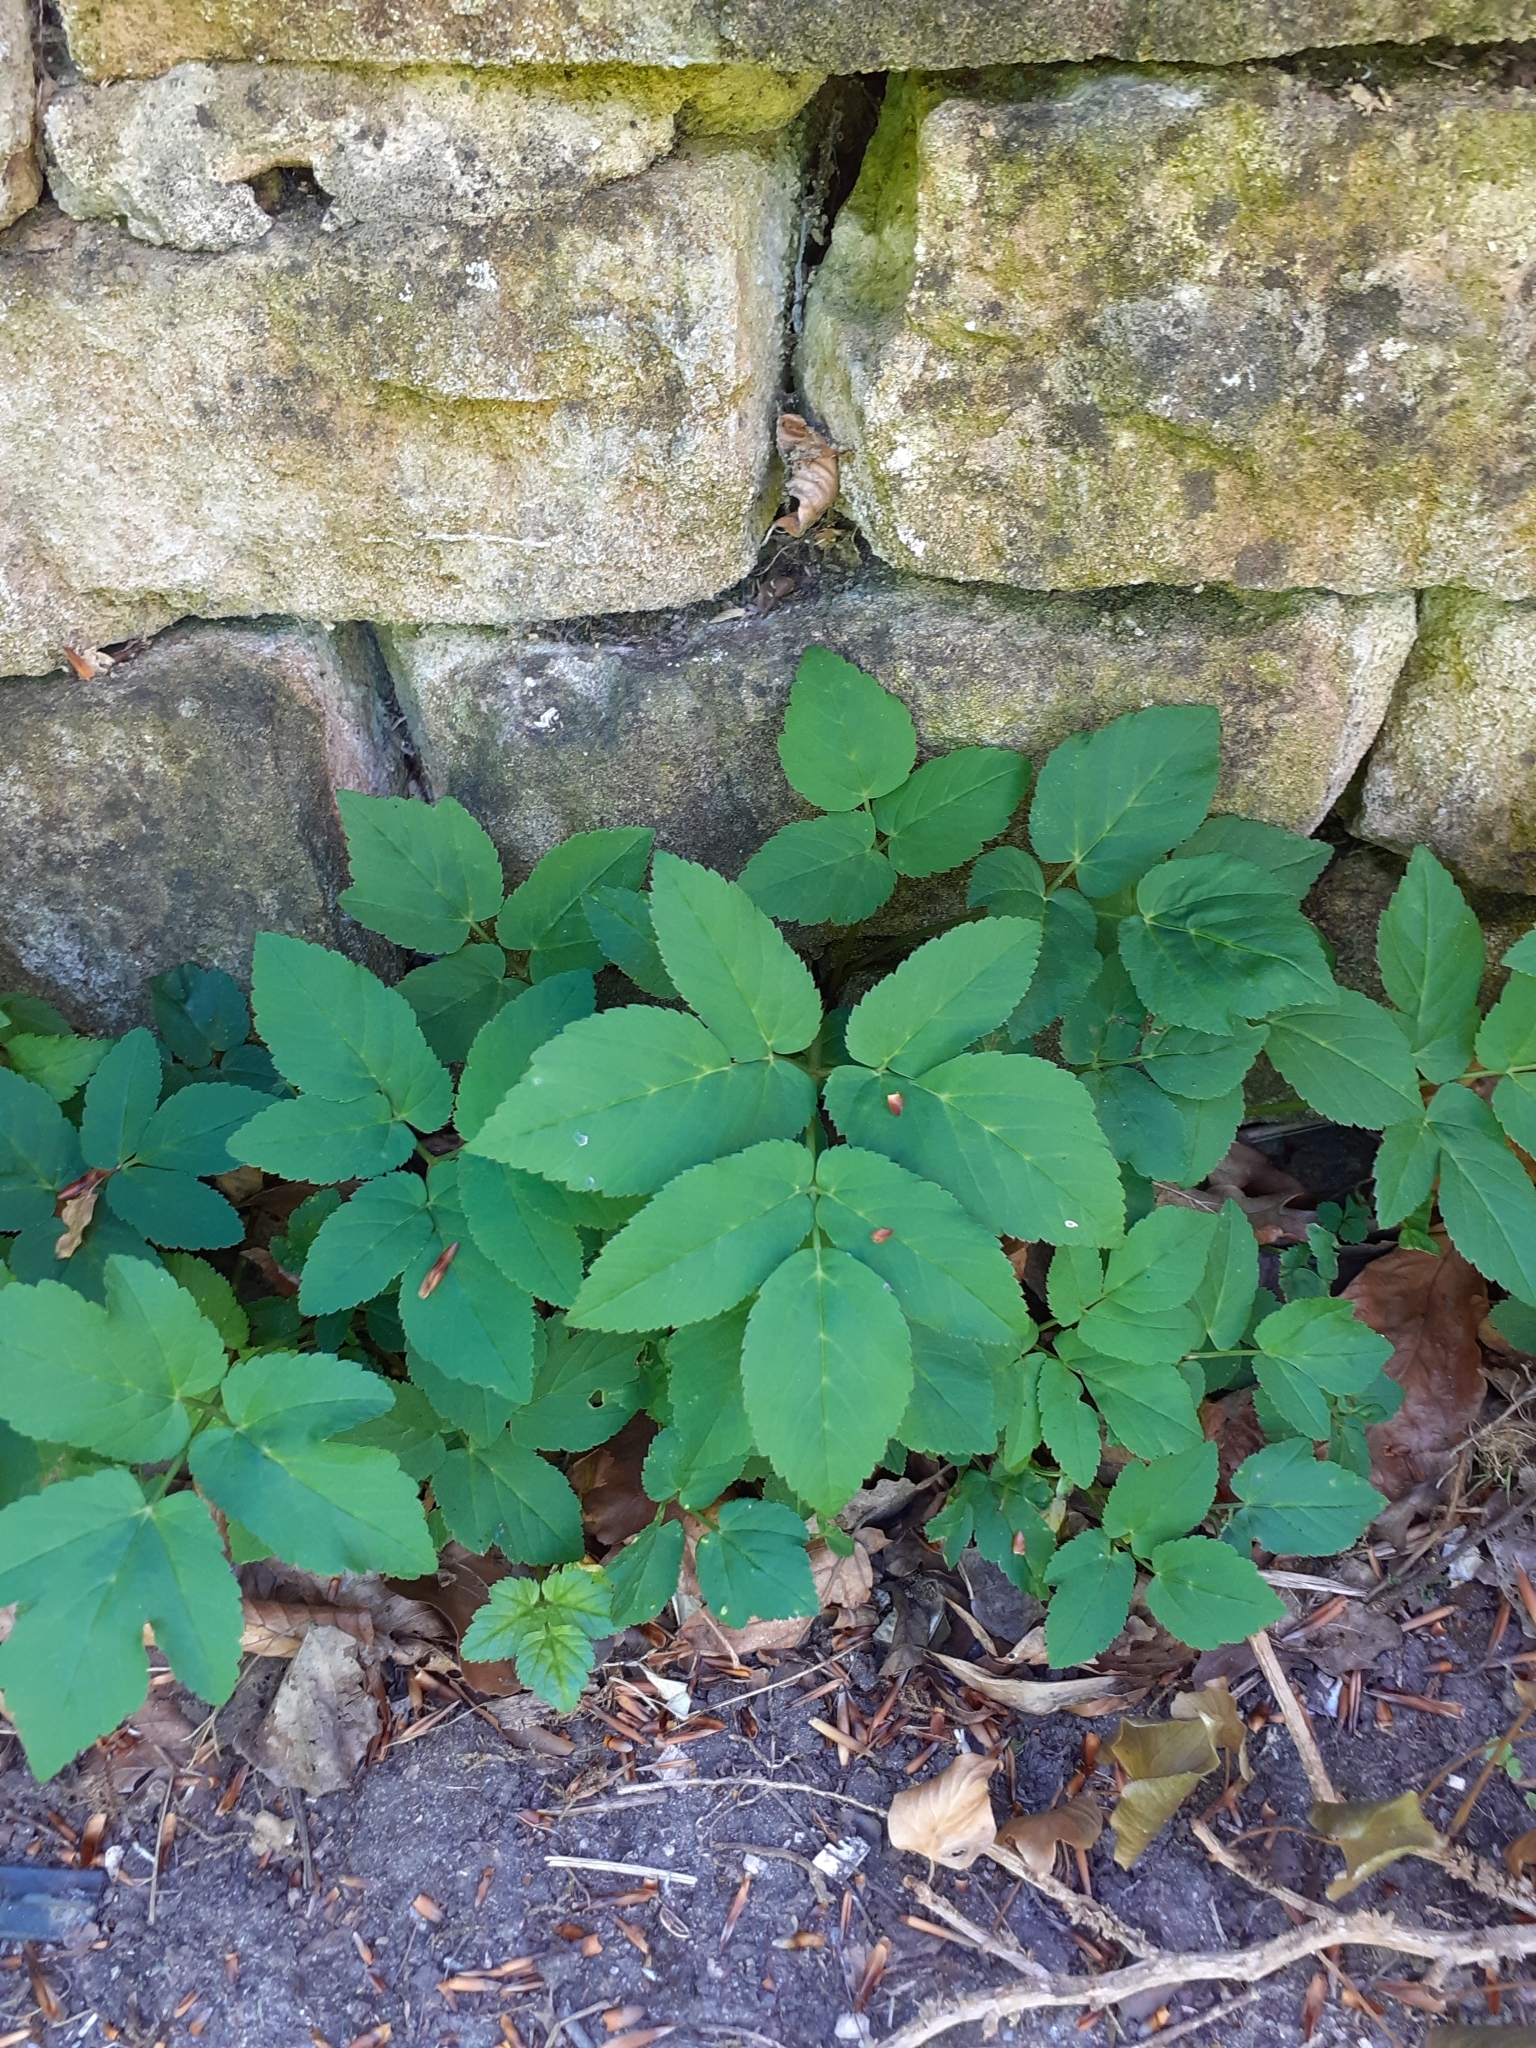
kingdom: Plantae
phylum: Tracheophyta
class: Magnoliopsida
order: Apiales
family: Apiaceae
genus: Aegopodium
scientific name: Aegopodium podagraria
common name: Ground-elder
